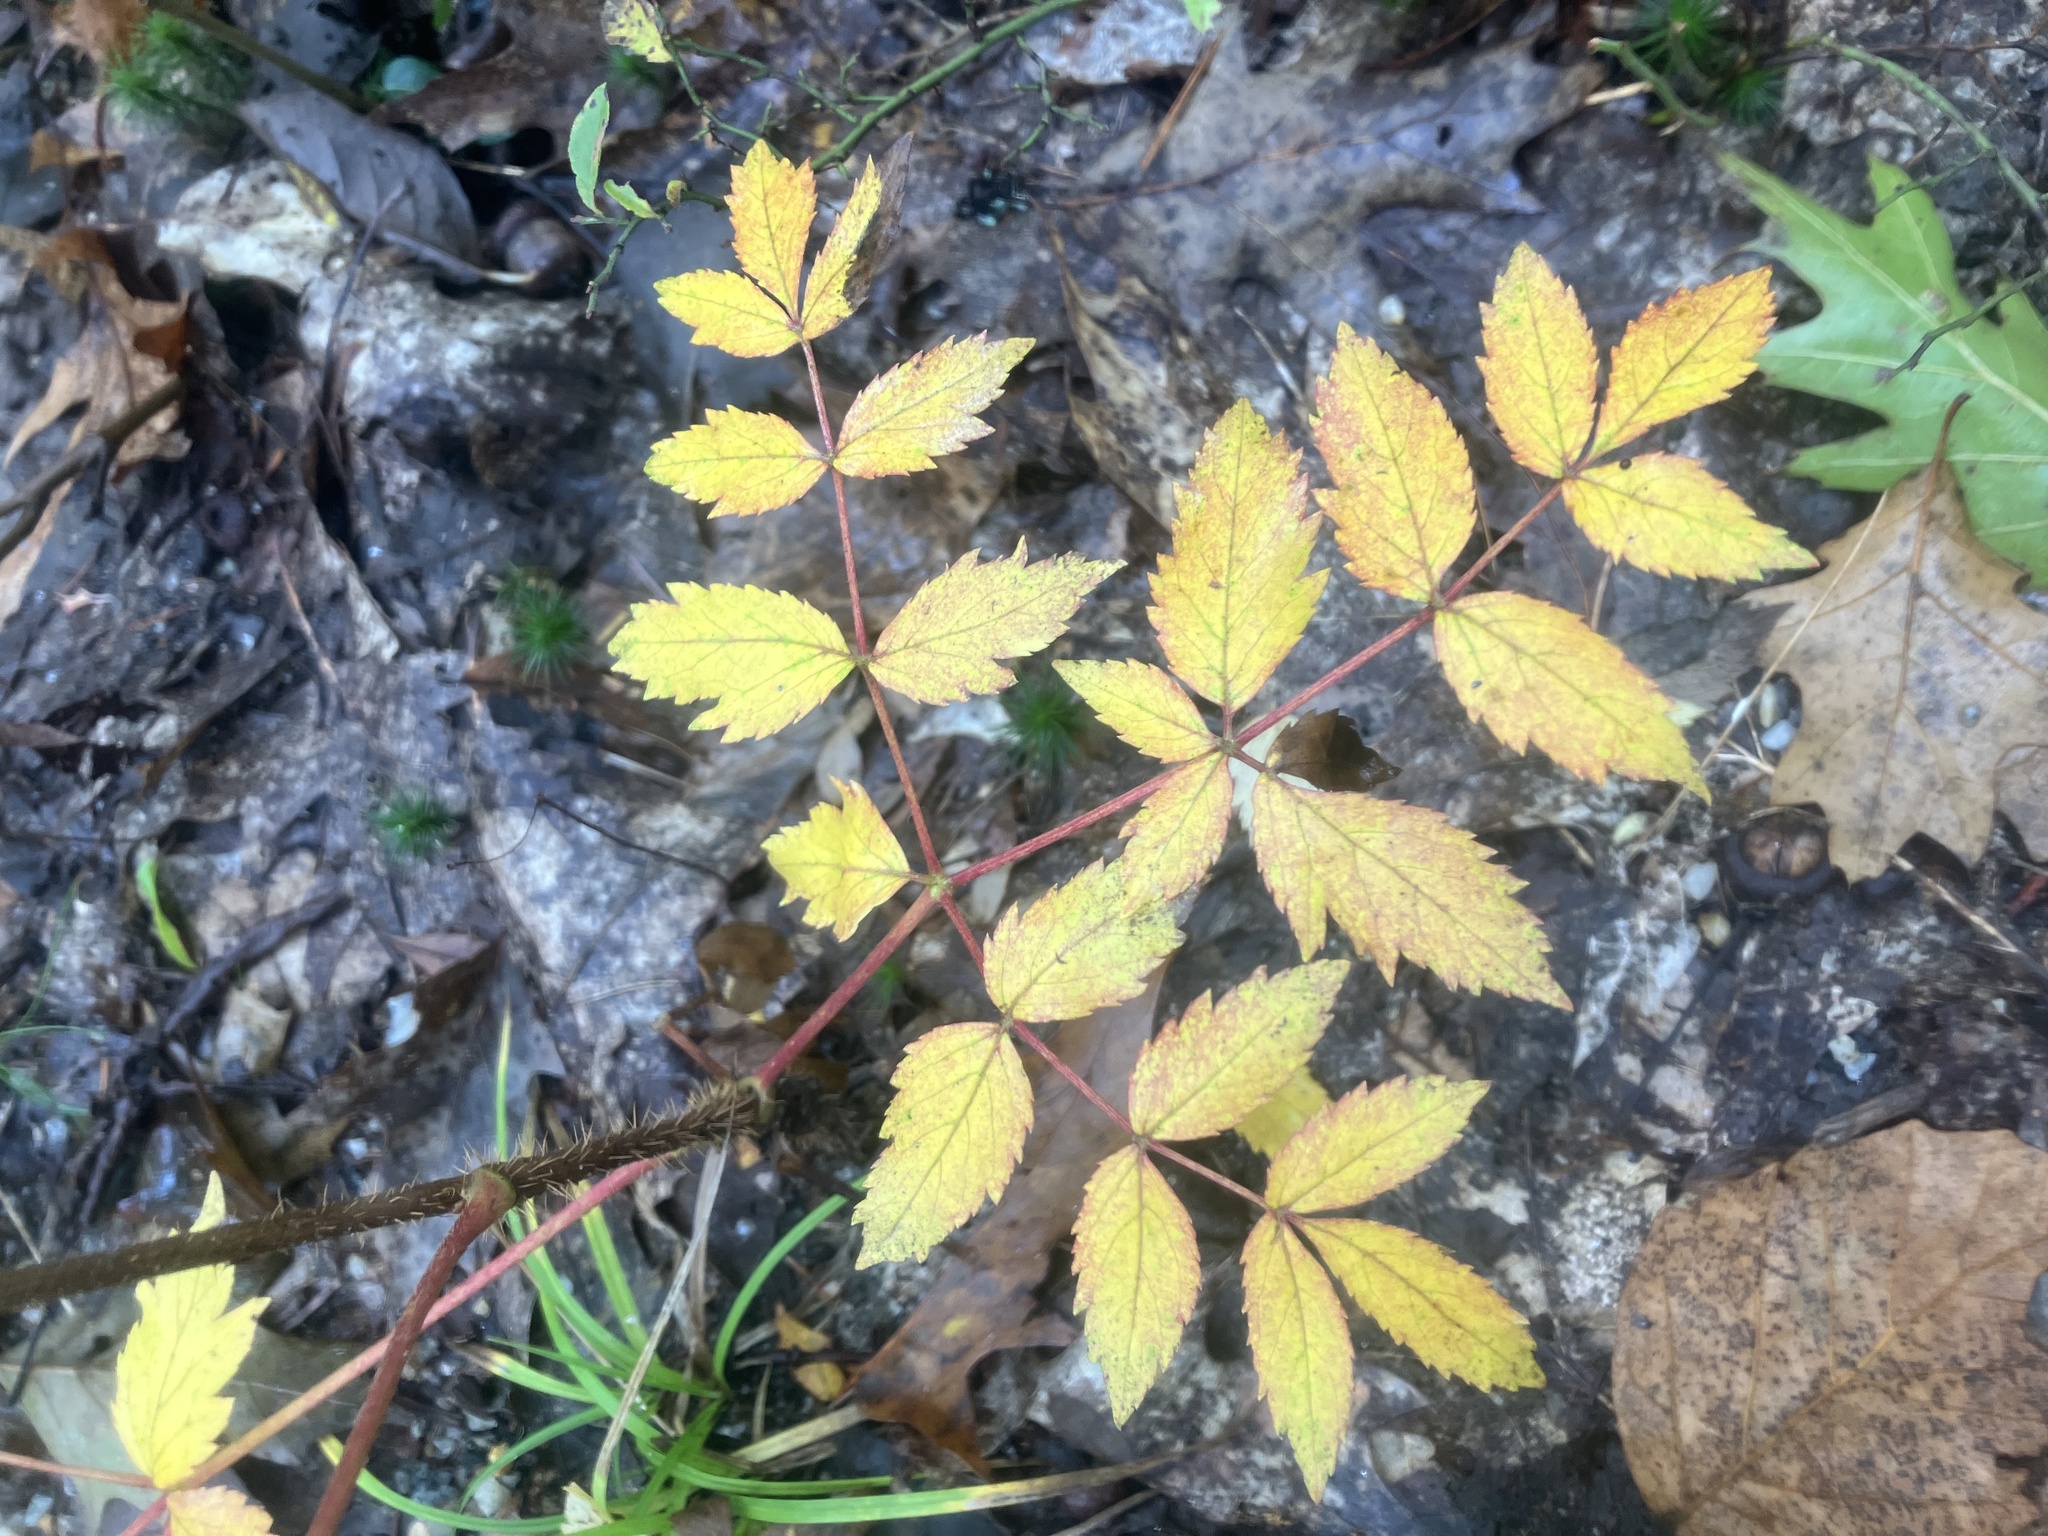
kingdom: Plantae
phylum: Tracheophyta
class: Magnoliopsida
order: Apiales
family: Araliaceae
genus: Aralia
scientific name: Aralia hispida
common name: Bristly sarsaparilla
